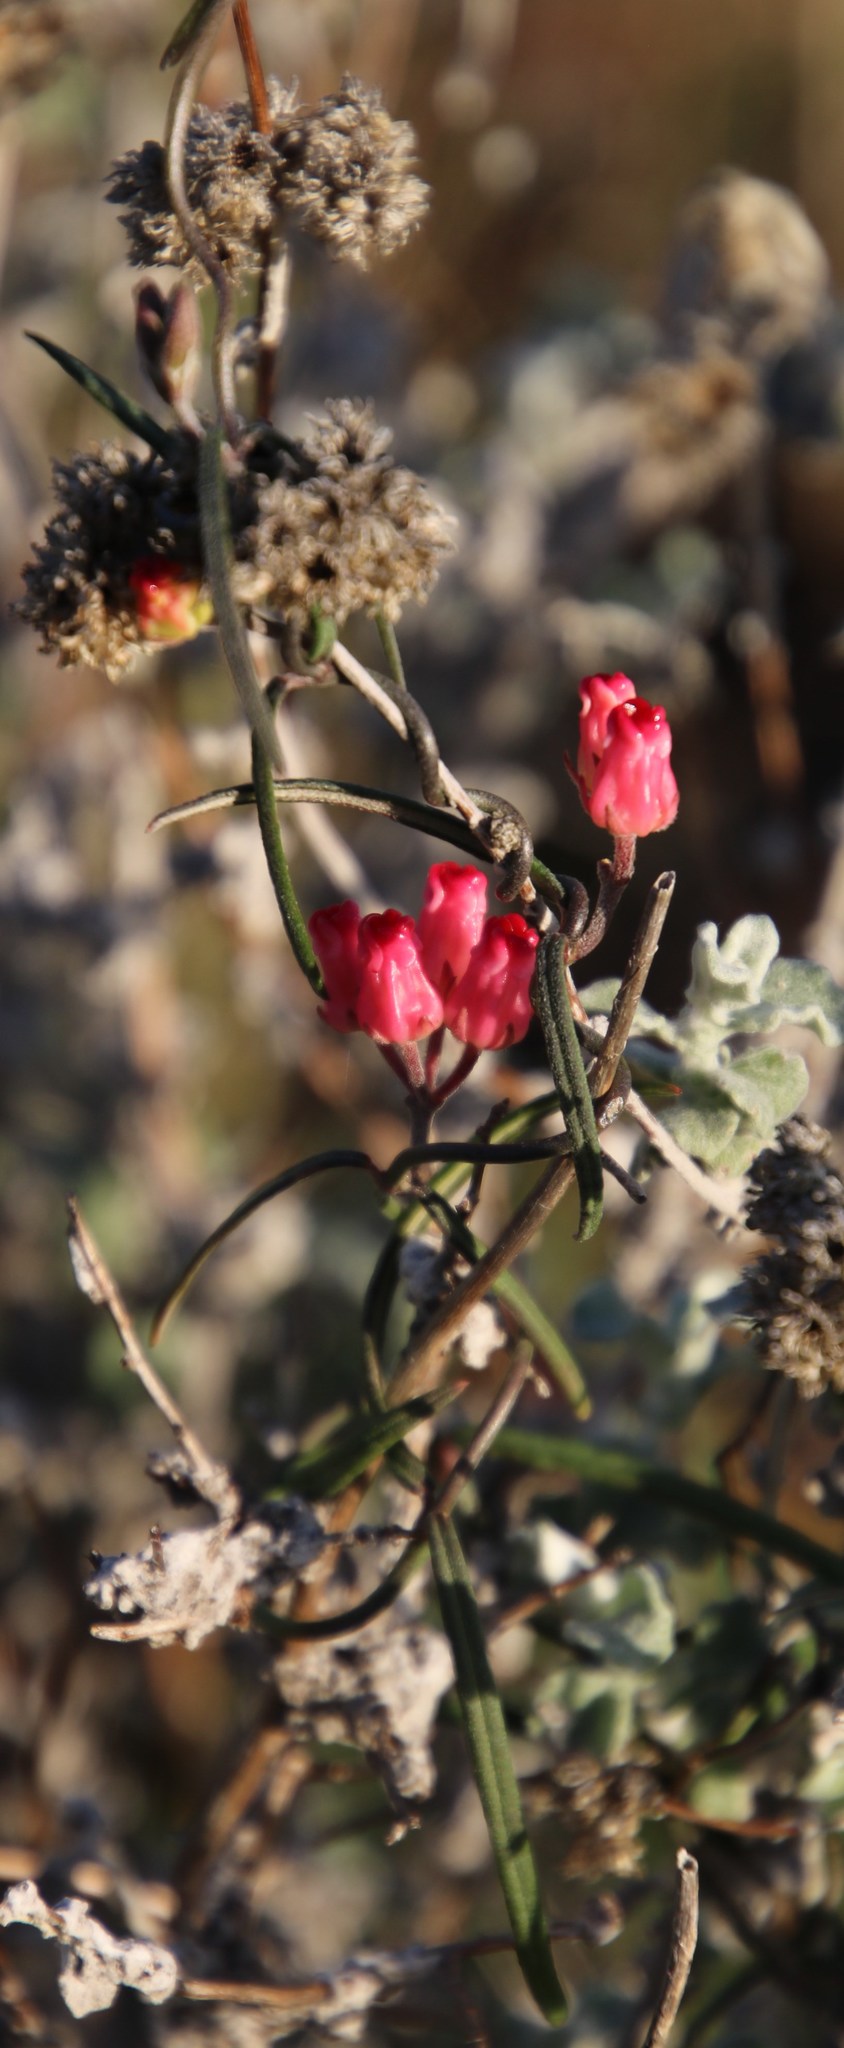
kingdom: Plantae
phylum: Tracheophyta
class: Magnoliopsida
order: Gentianales
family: Apocynaceae
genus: Microloma
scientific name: Microloma tenuifolium
